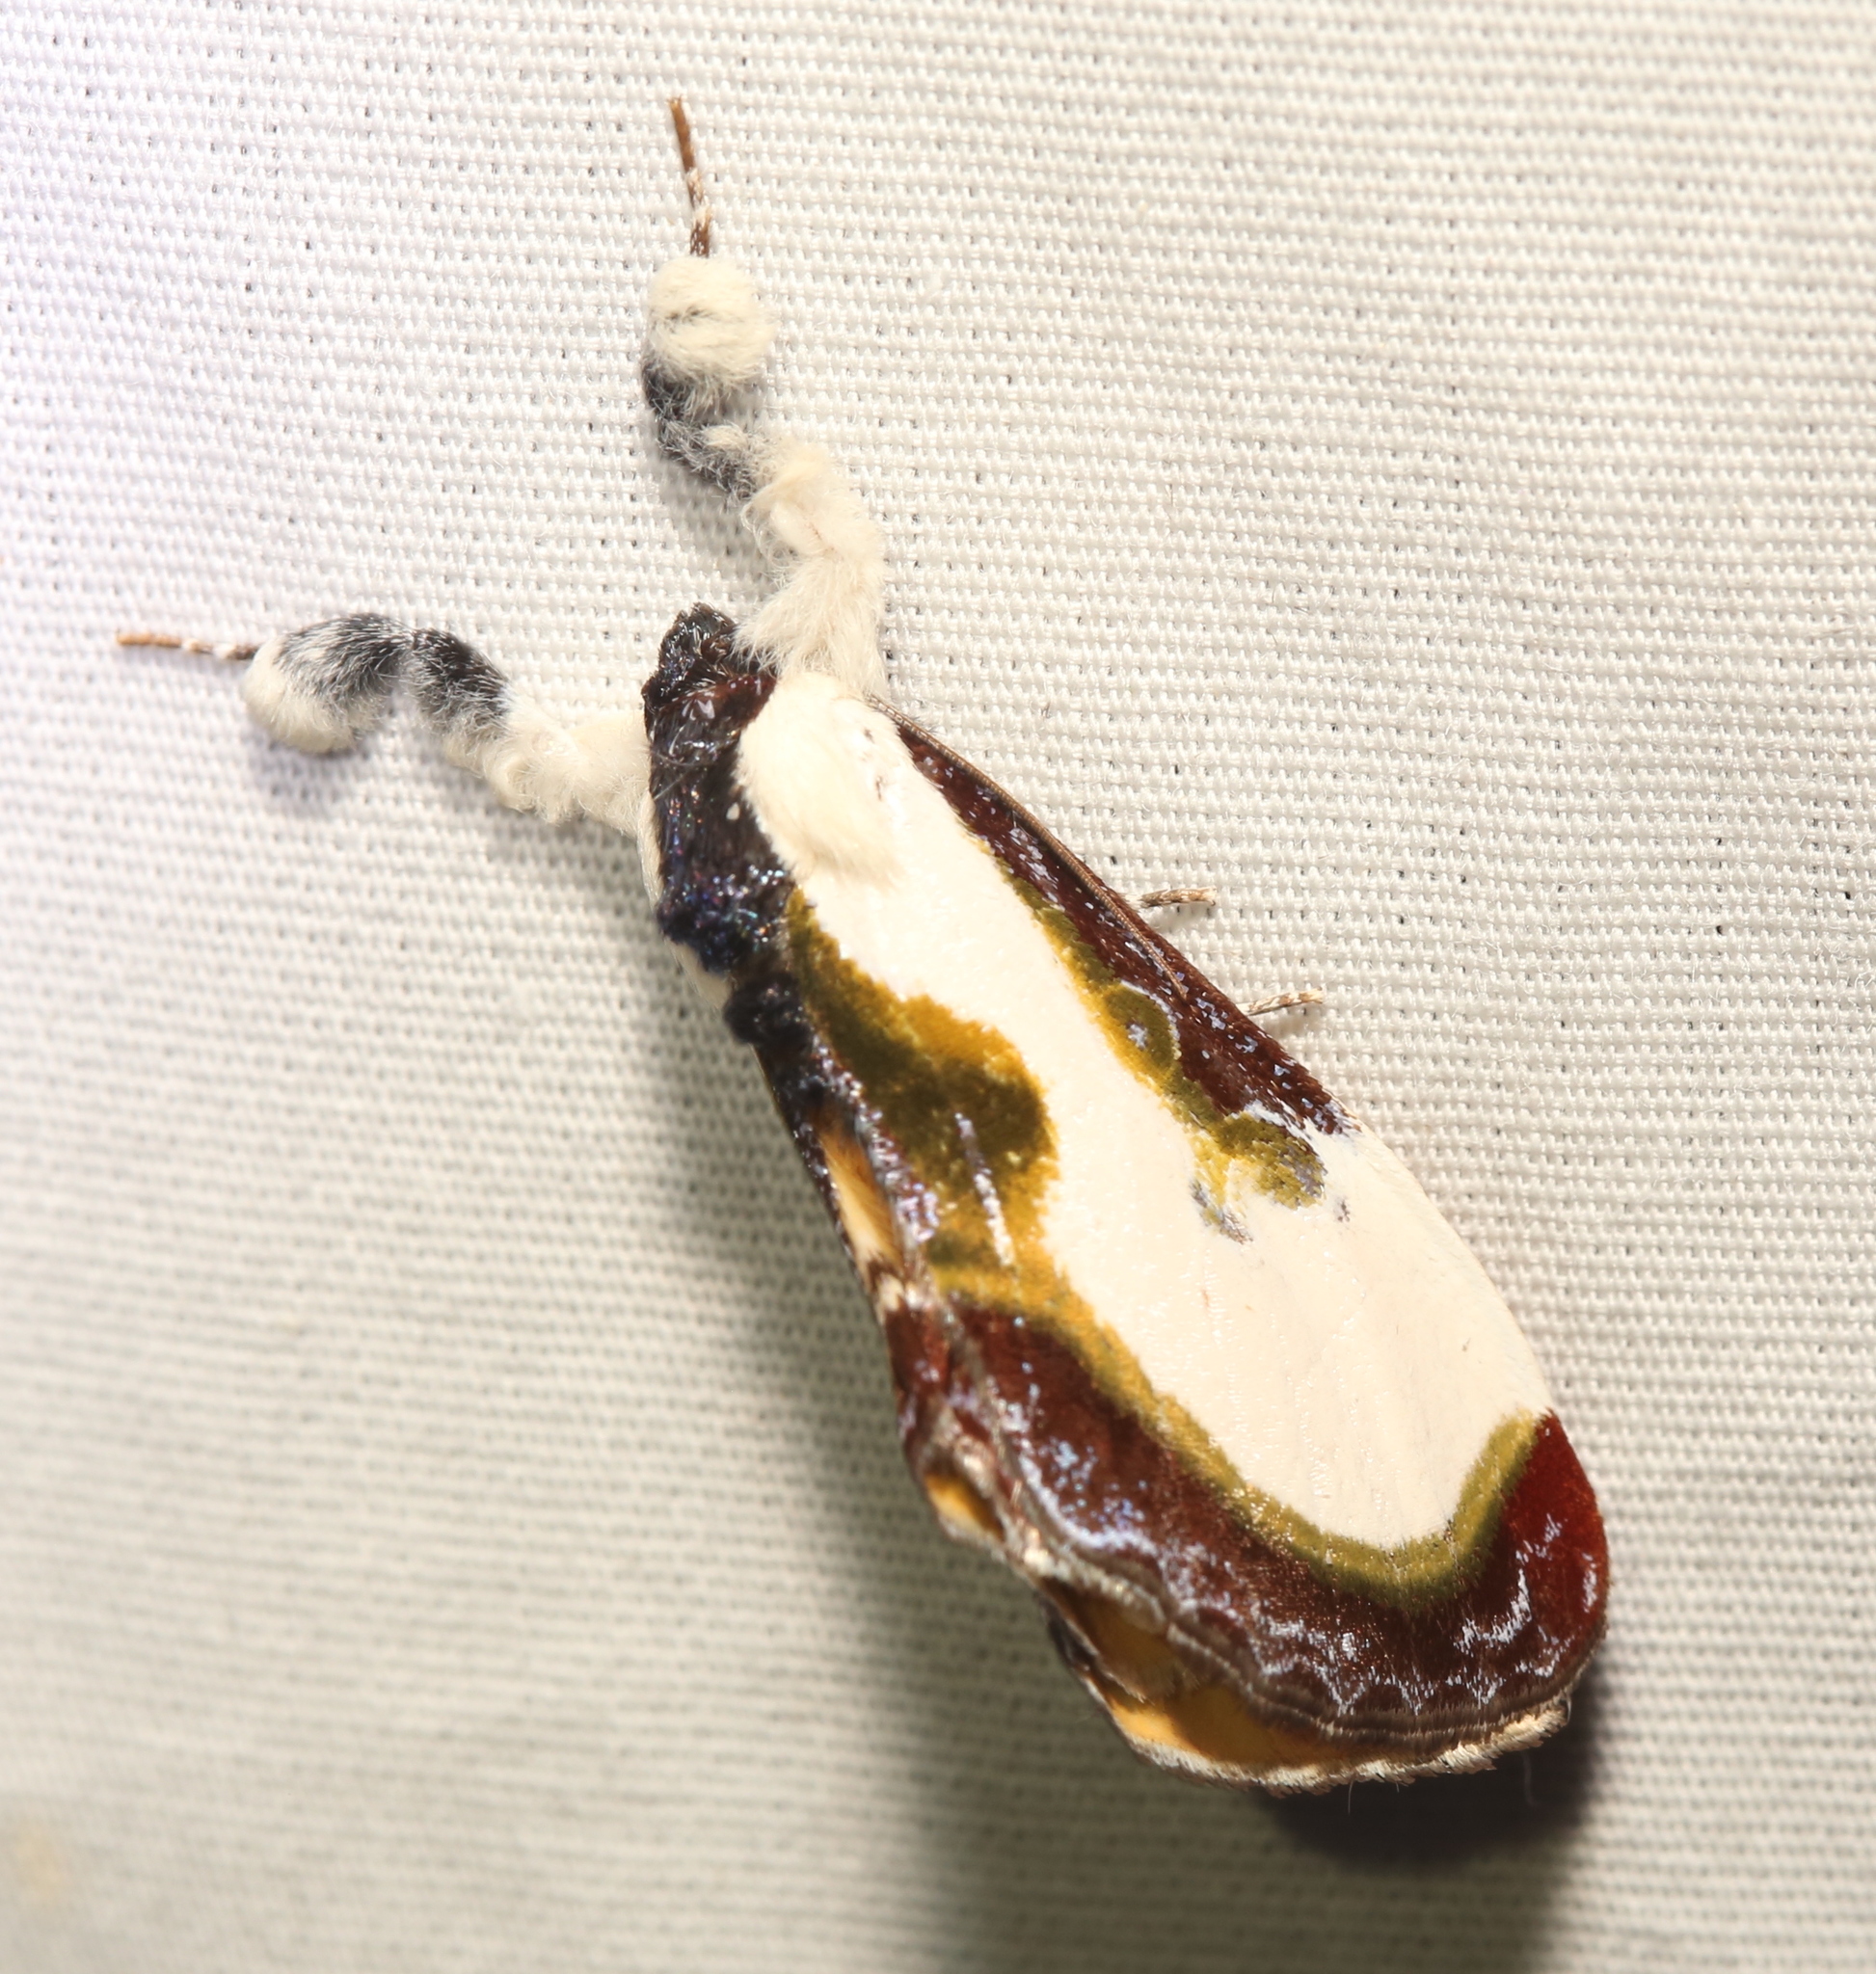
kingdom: Animalia
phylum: Arthropoda
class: Insecta
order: Lepidoptera
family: Noctuidae
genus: Eudryas
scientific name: Eudryas grata
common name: Beautiful wood-nymph
